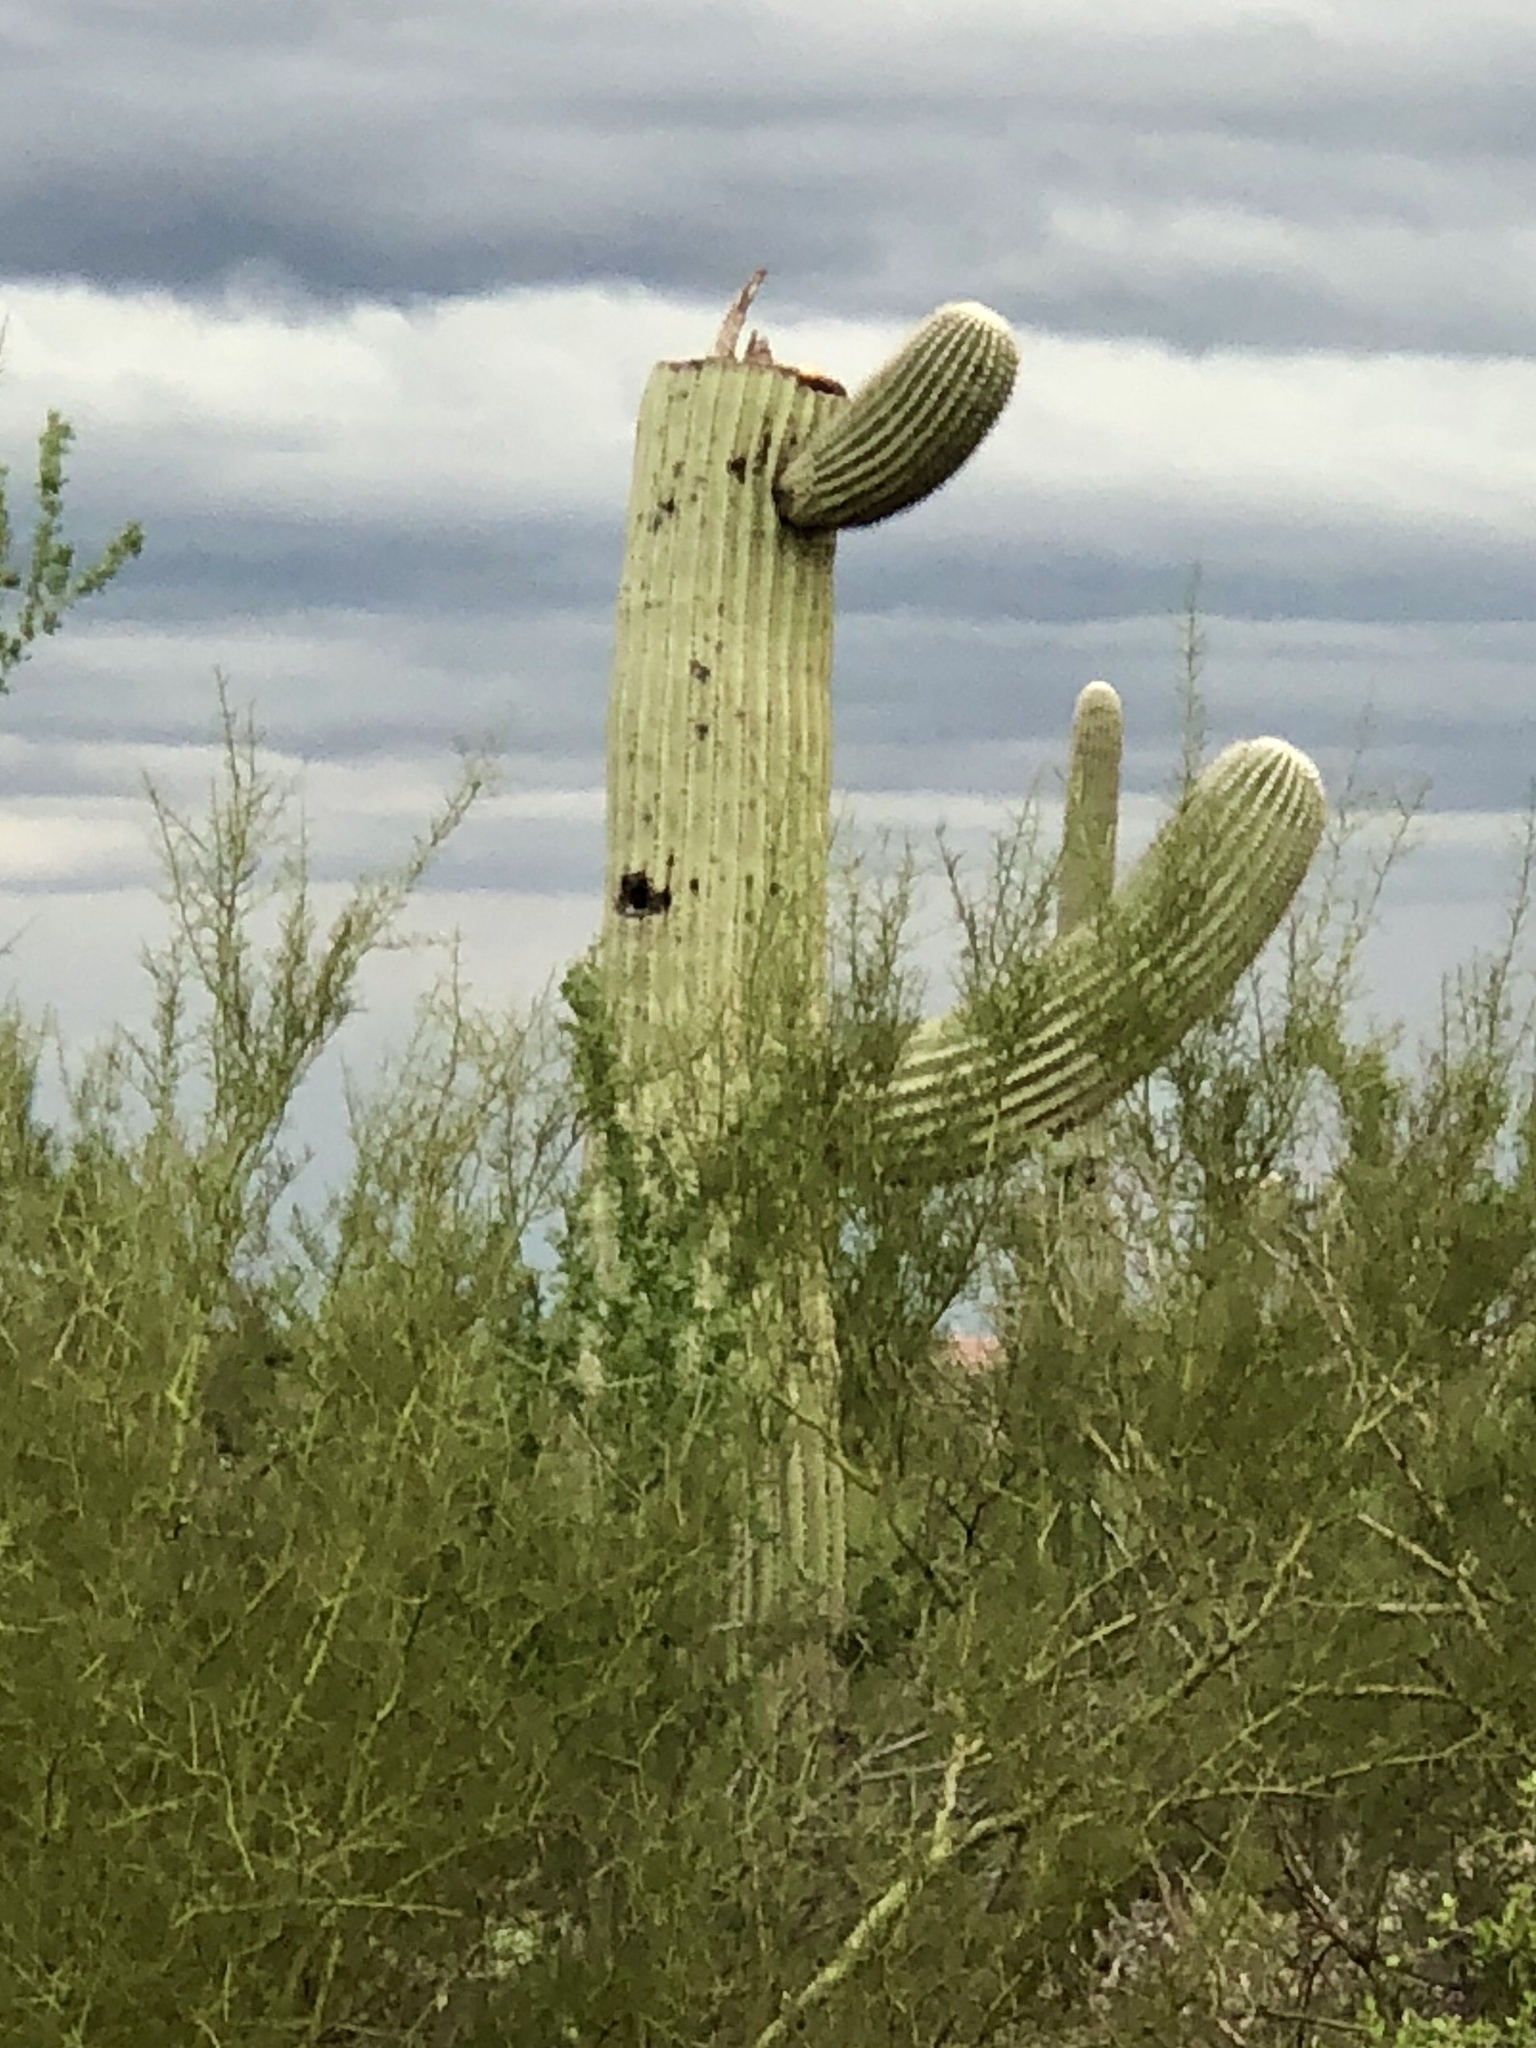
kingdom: Plantae
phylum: Tracheophyta
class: Magnoliopsida
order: Caryophyllales
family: Cactaceae
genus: Carnegiea
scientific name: Carnegiea gigantea
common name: Saguaro
